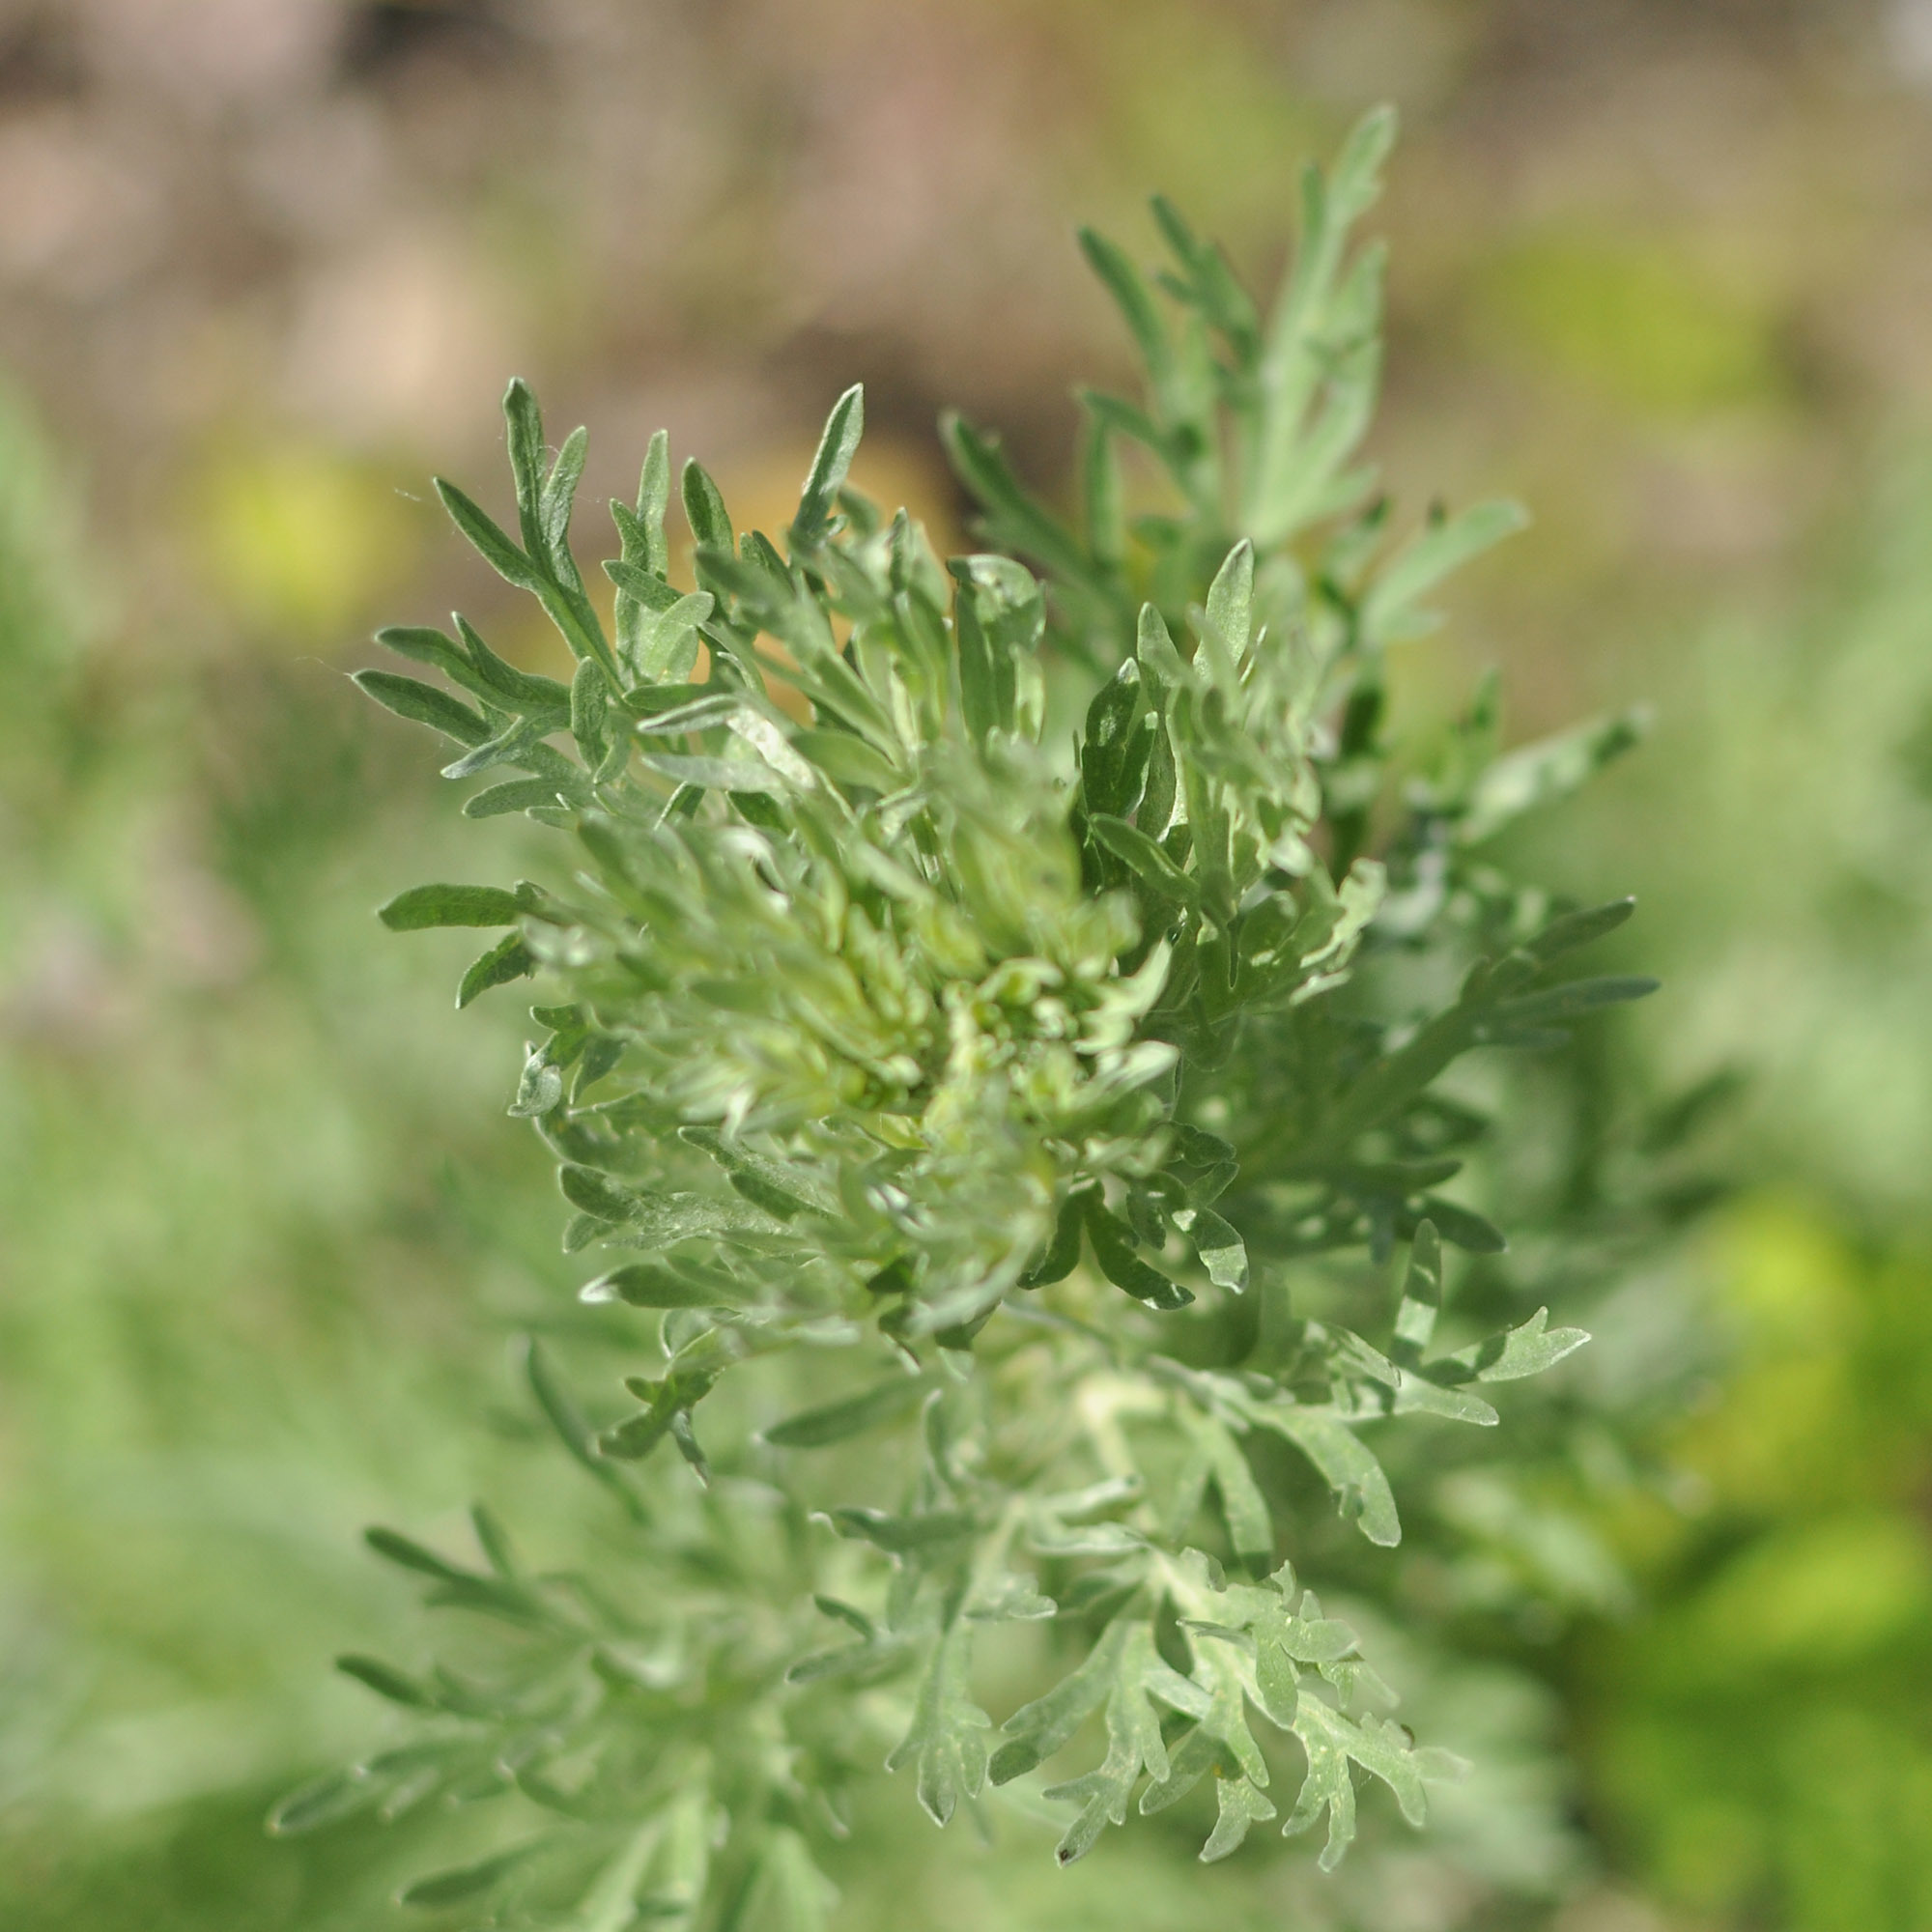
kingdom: Plantae
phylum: Tracheophyta
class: Magnoliopsida
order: Asterales
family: Asteraceae
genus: Artemisia
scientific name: Artemisia absinthium
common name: Wormwood
